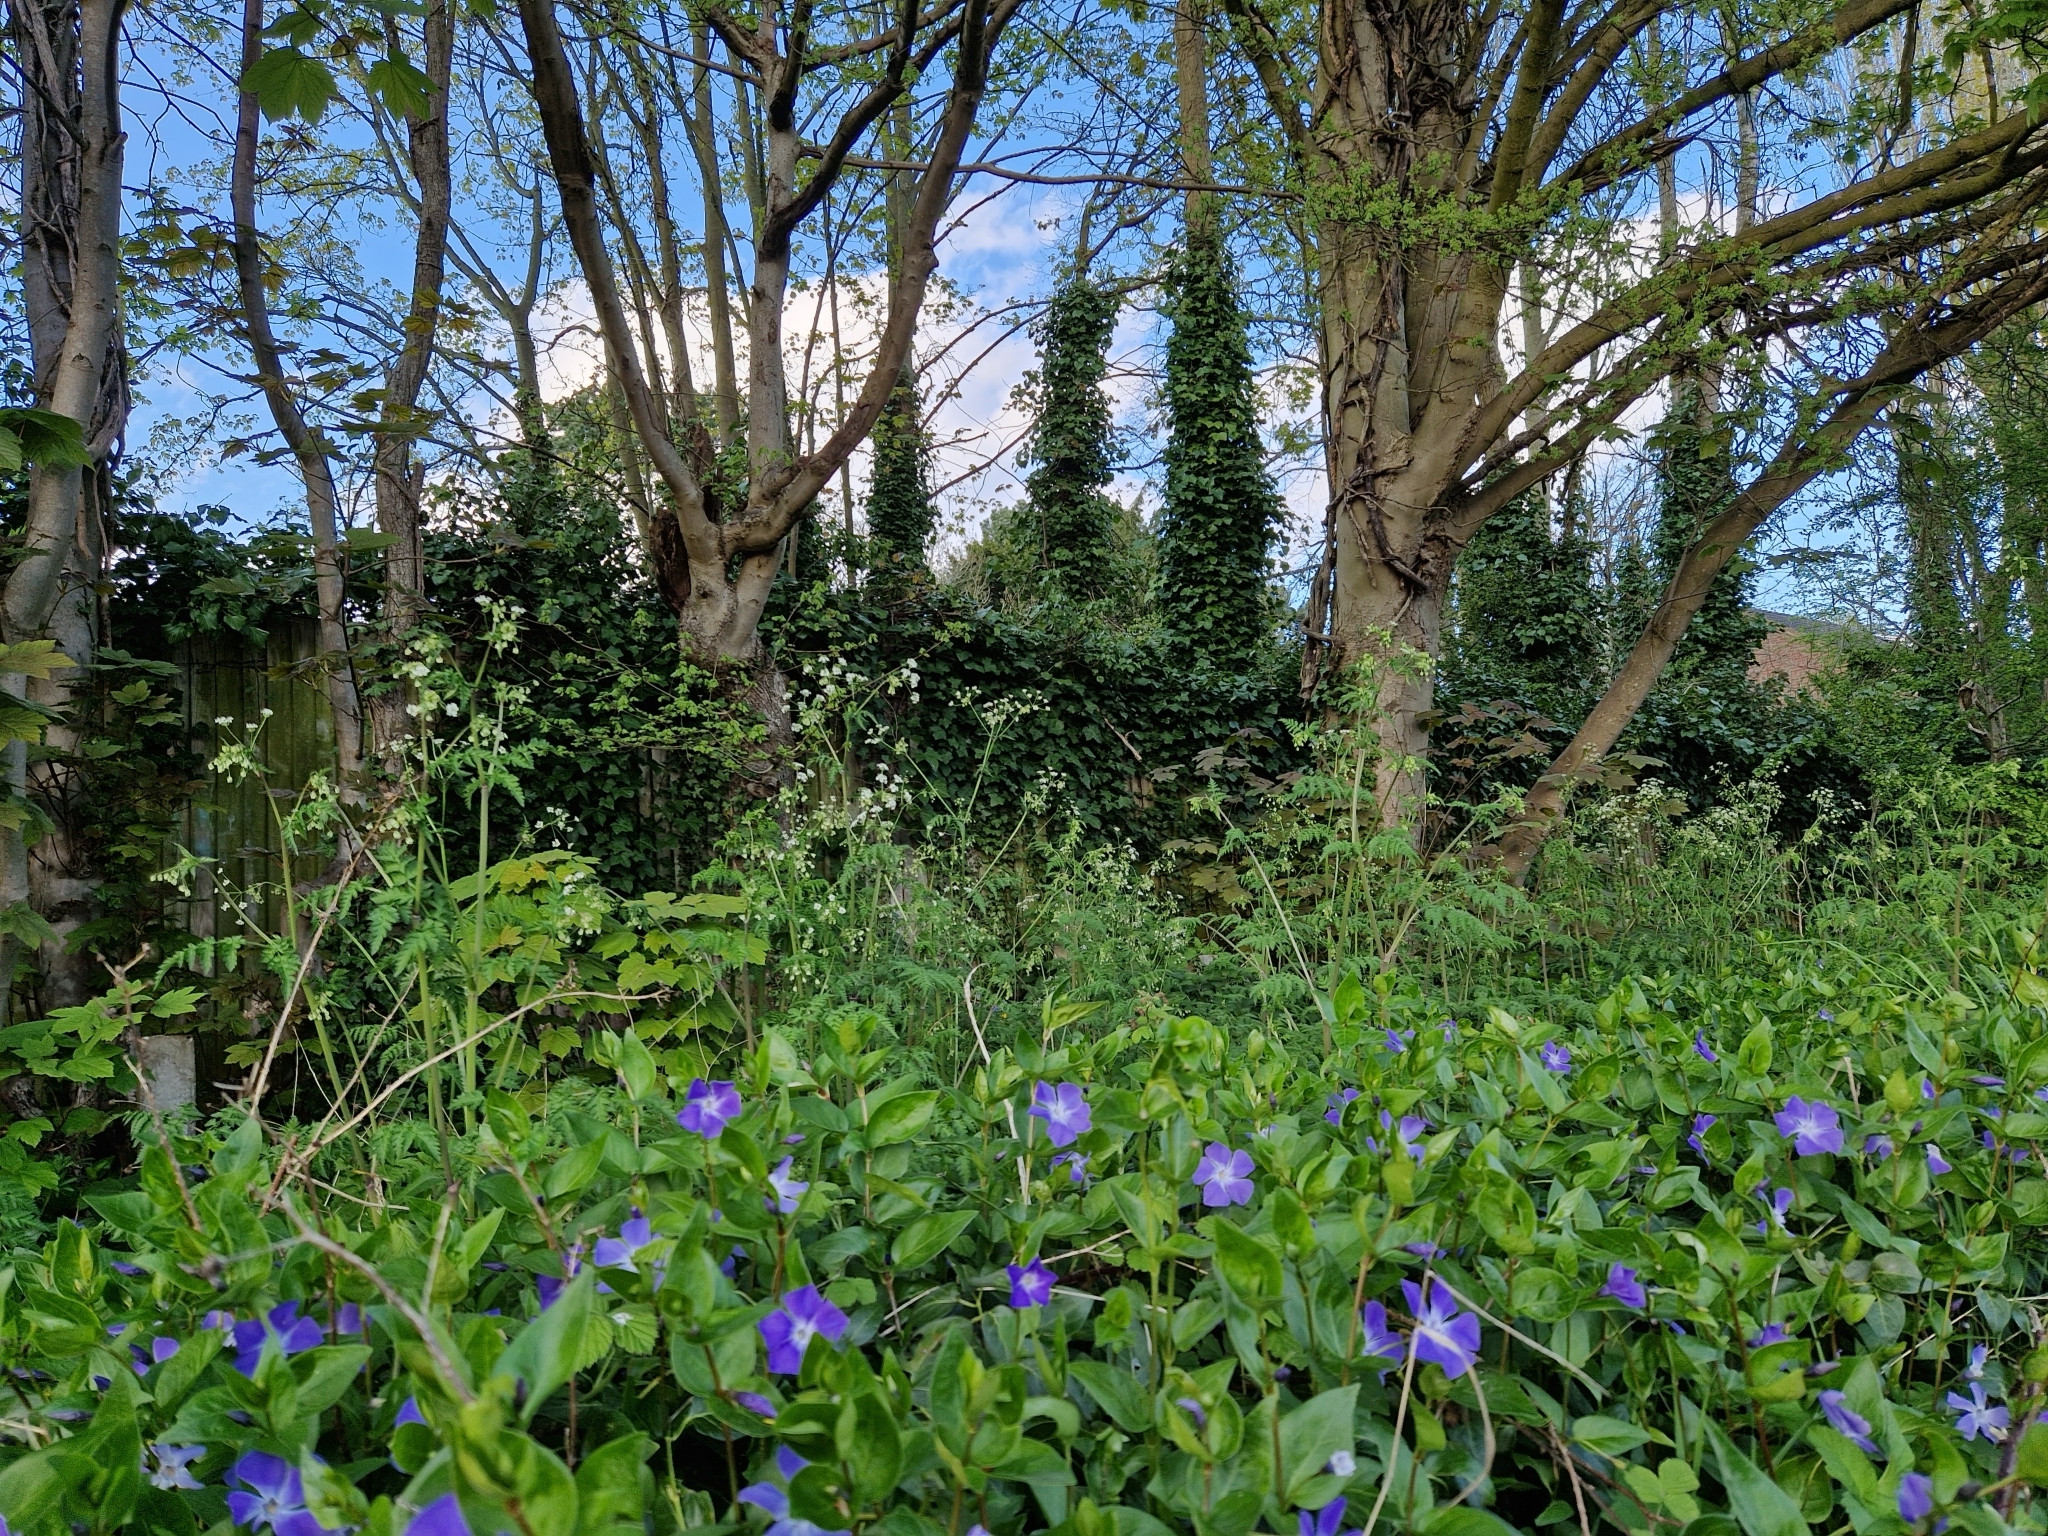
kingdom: Plantae
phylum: Tracheophyta
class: Magnoliopsida
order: Apiales
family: Apiaceae
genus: Anthriscus
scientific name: Anthriscus sylvestris
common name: Cow parsley
